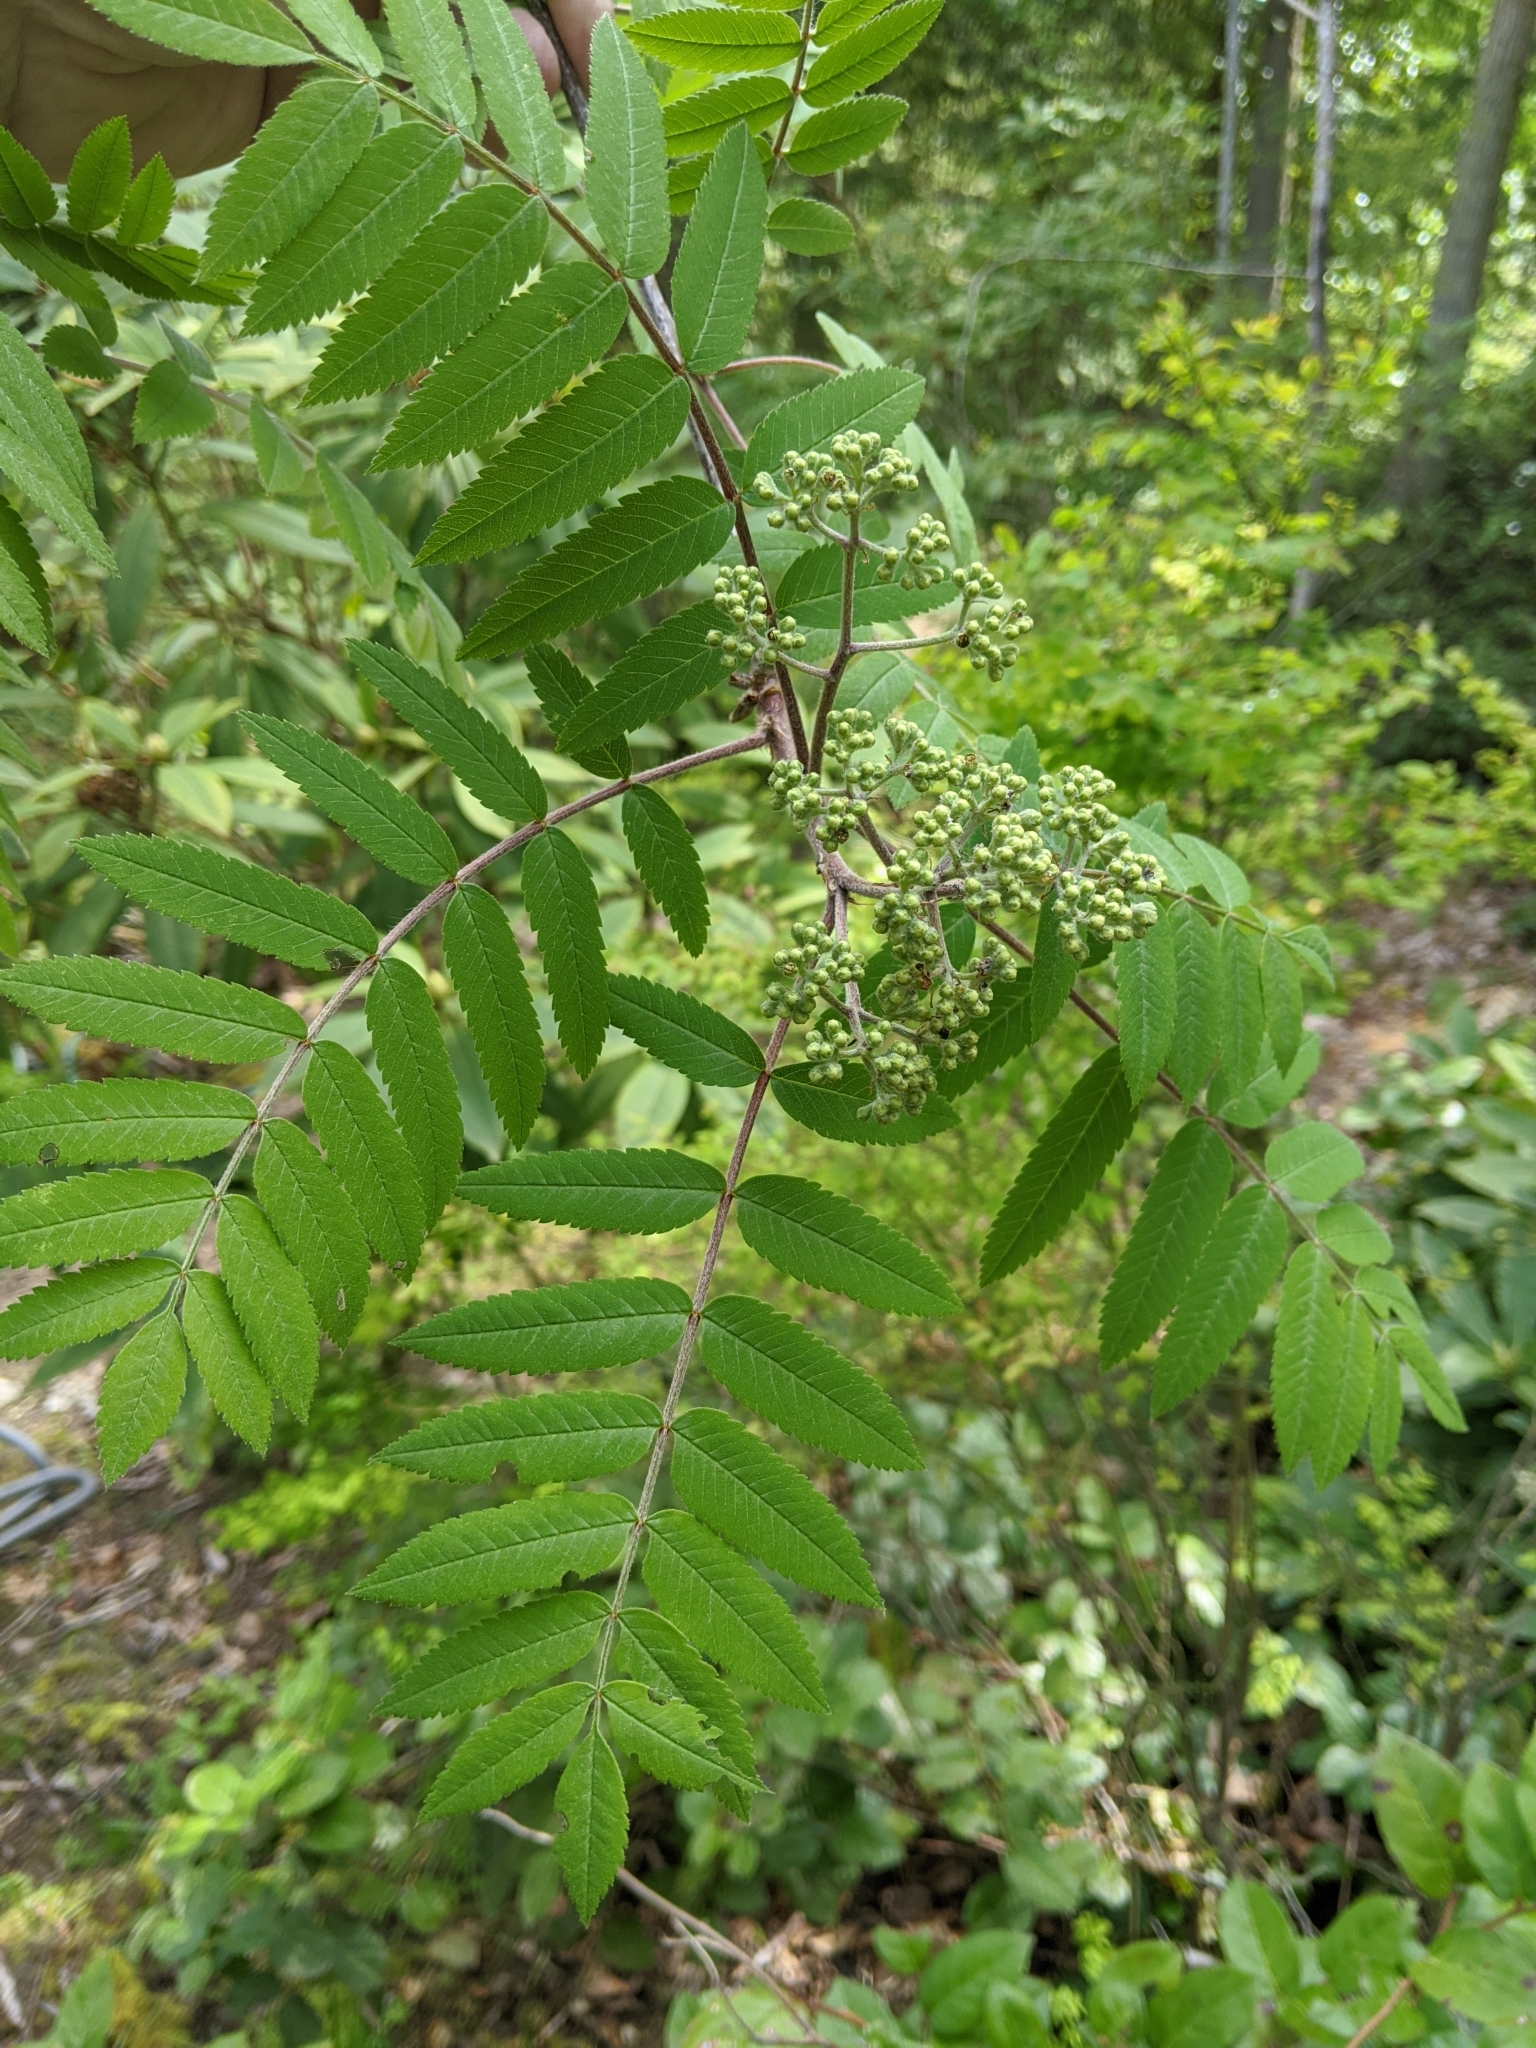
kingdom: Plantae
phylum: Tracheophyta
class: Magnoliopsida
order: Rosales
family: Rosaceae
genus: Sorbus
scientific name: Sorbus aucuparia
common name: Rowan
